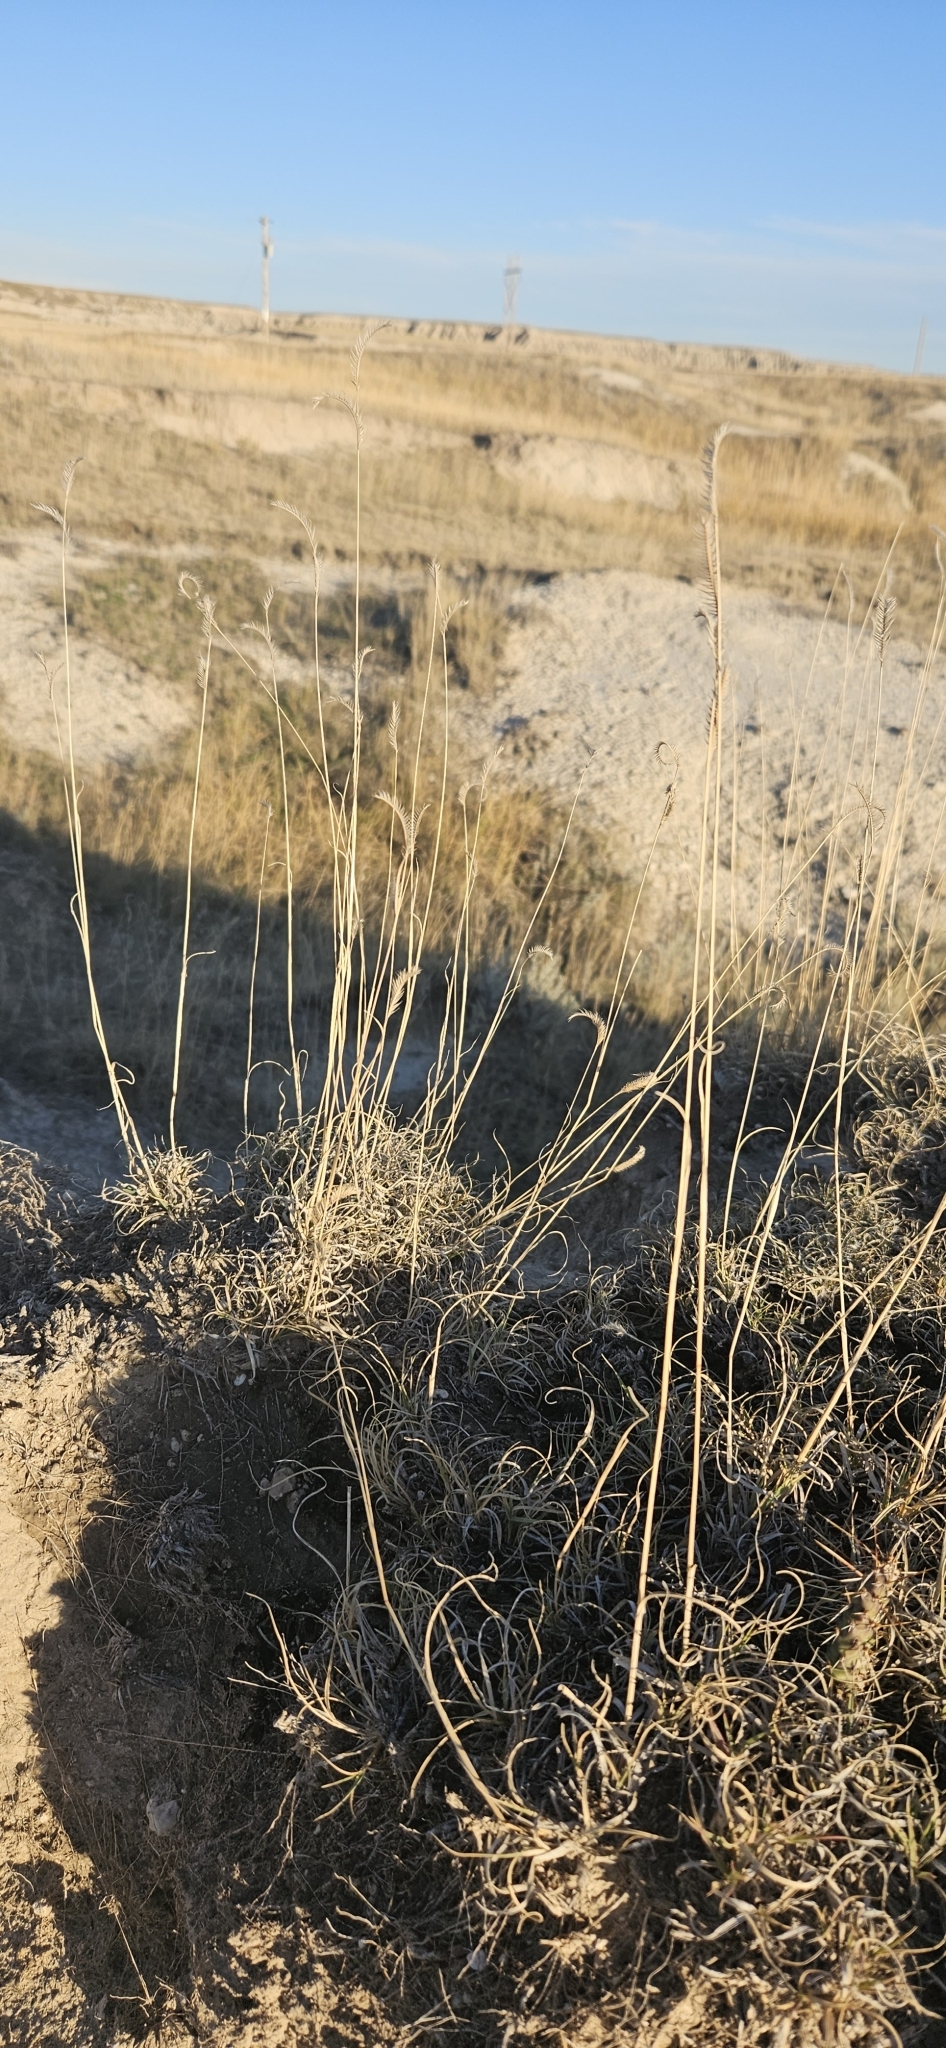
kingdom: Plantae
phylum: Tracheophyta
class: Liliopsida
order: Poales
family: Poaceae
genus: Bouteloua
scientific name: Bouteloua gracilis
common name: Blue grama
